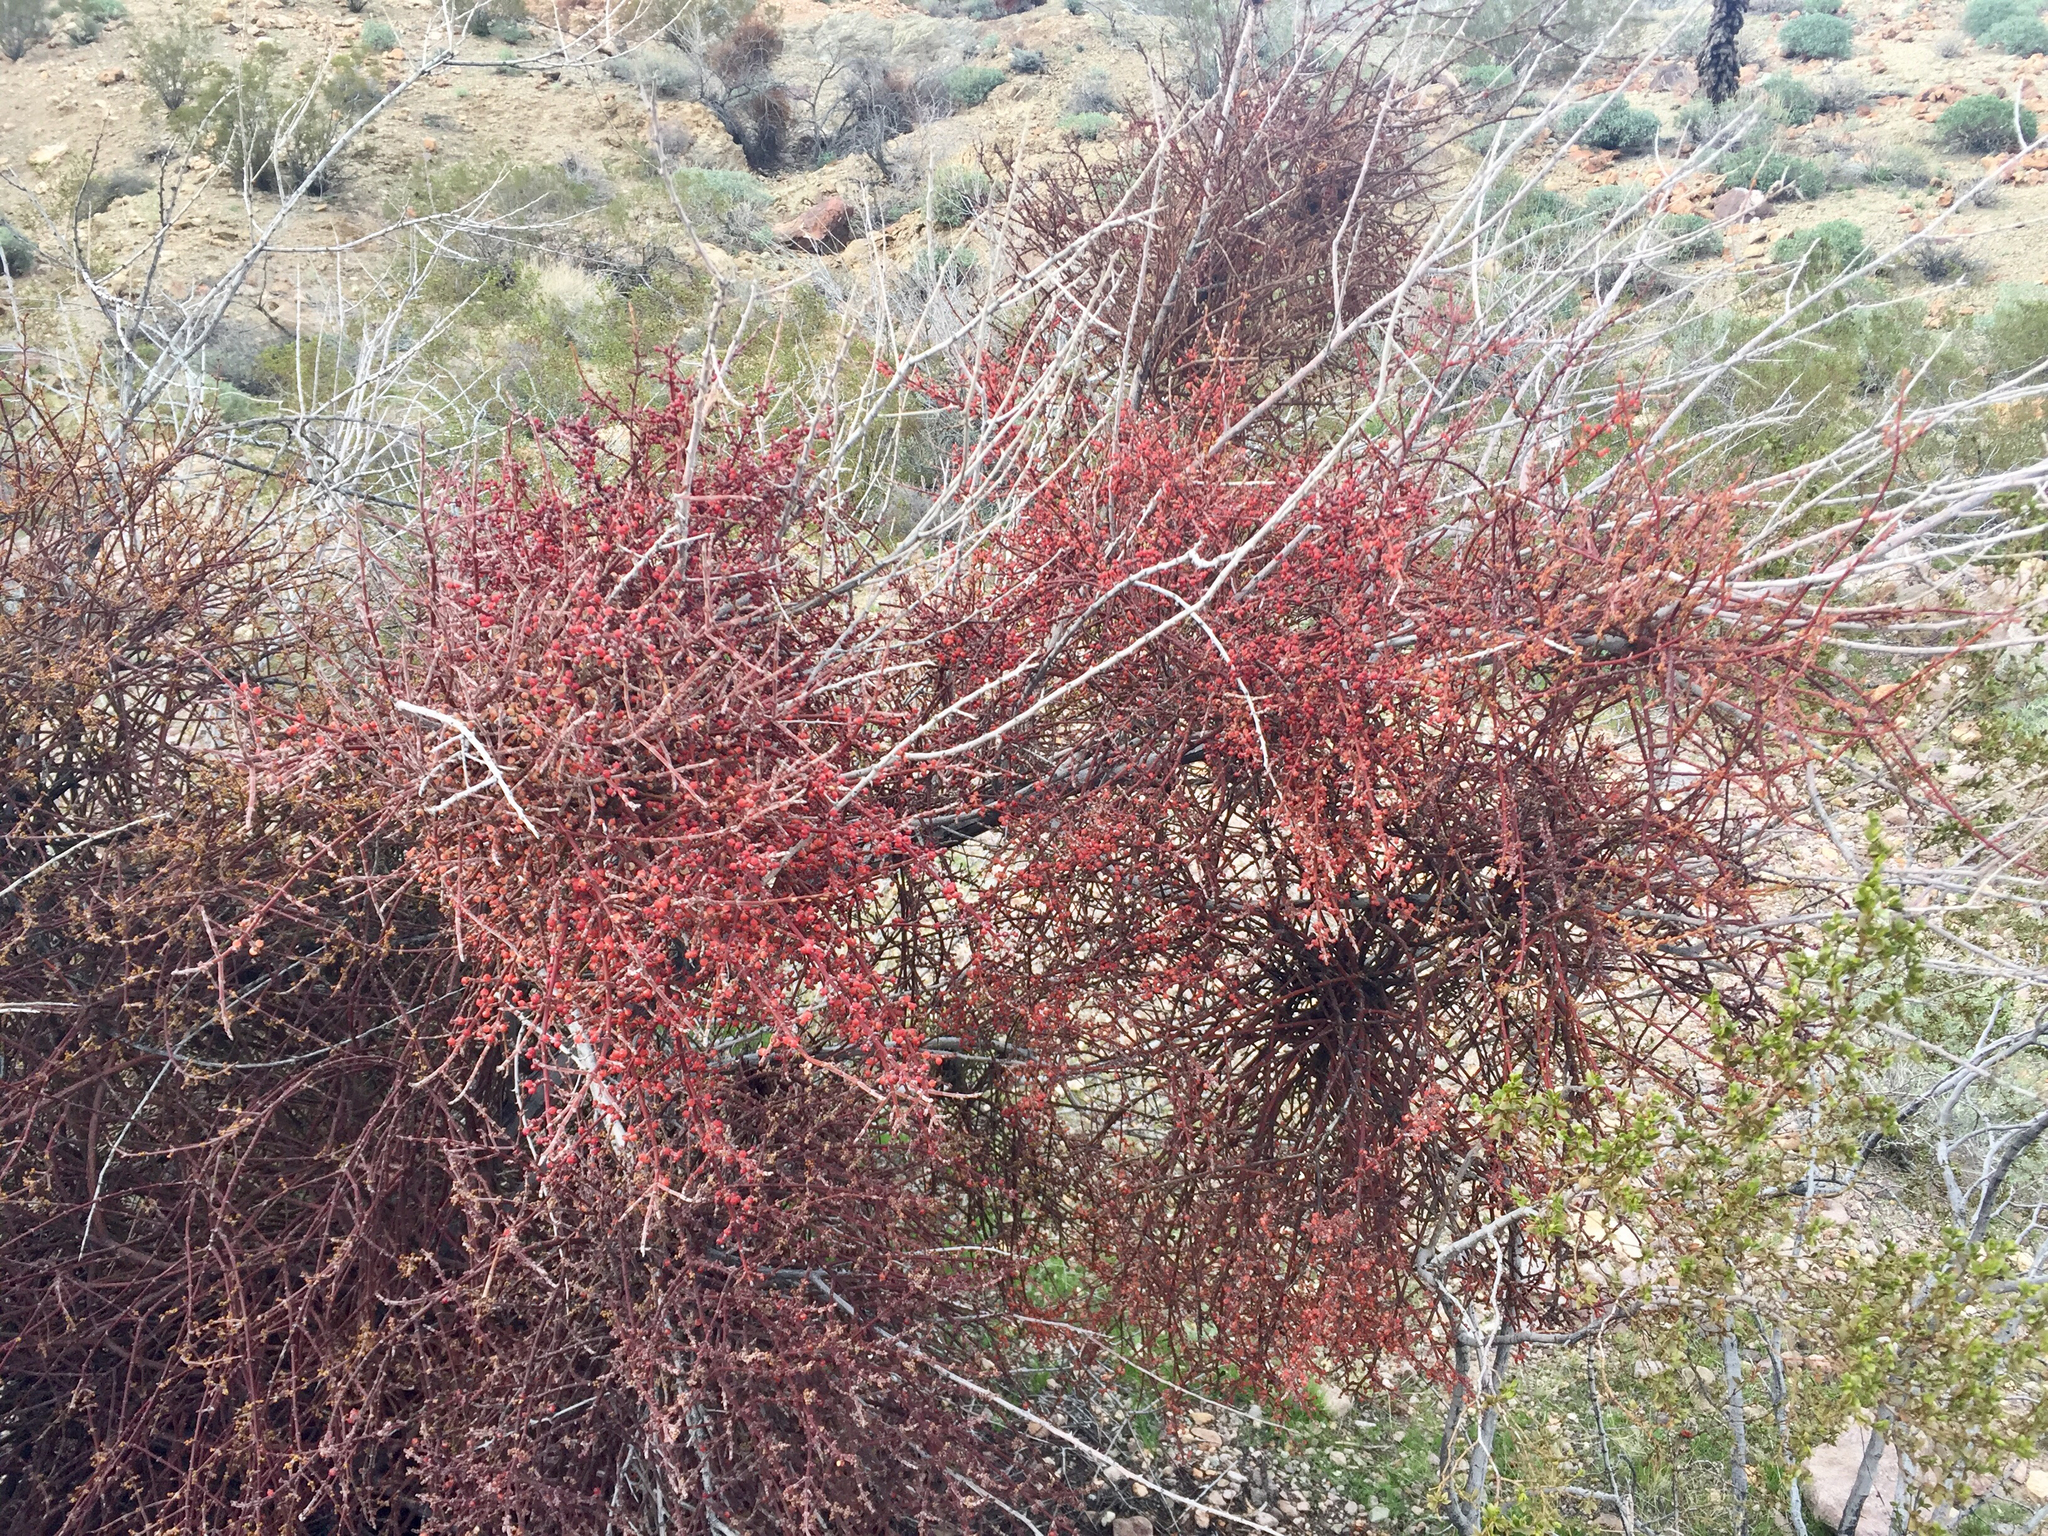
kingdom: Plantae
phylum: Tracheophyta
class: Magnoliopsida
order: Santalales
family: Viscaceae
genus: Phoradendron
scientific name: Phoradendron californicum
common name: Acacia mistletoe
